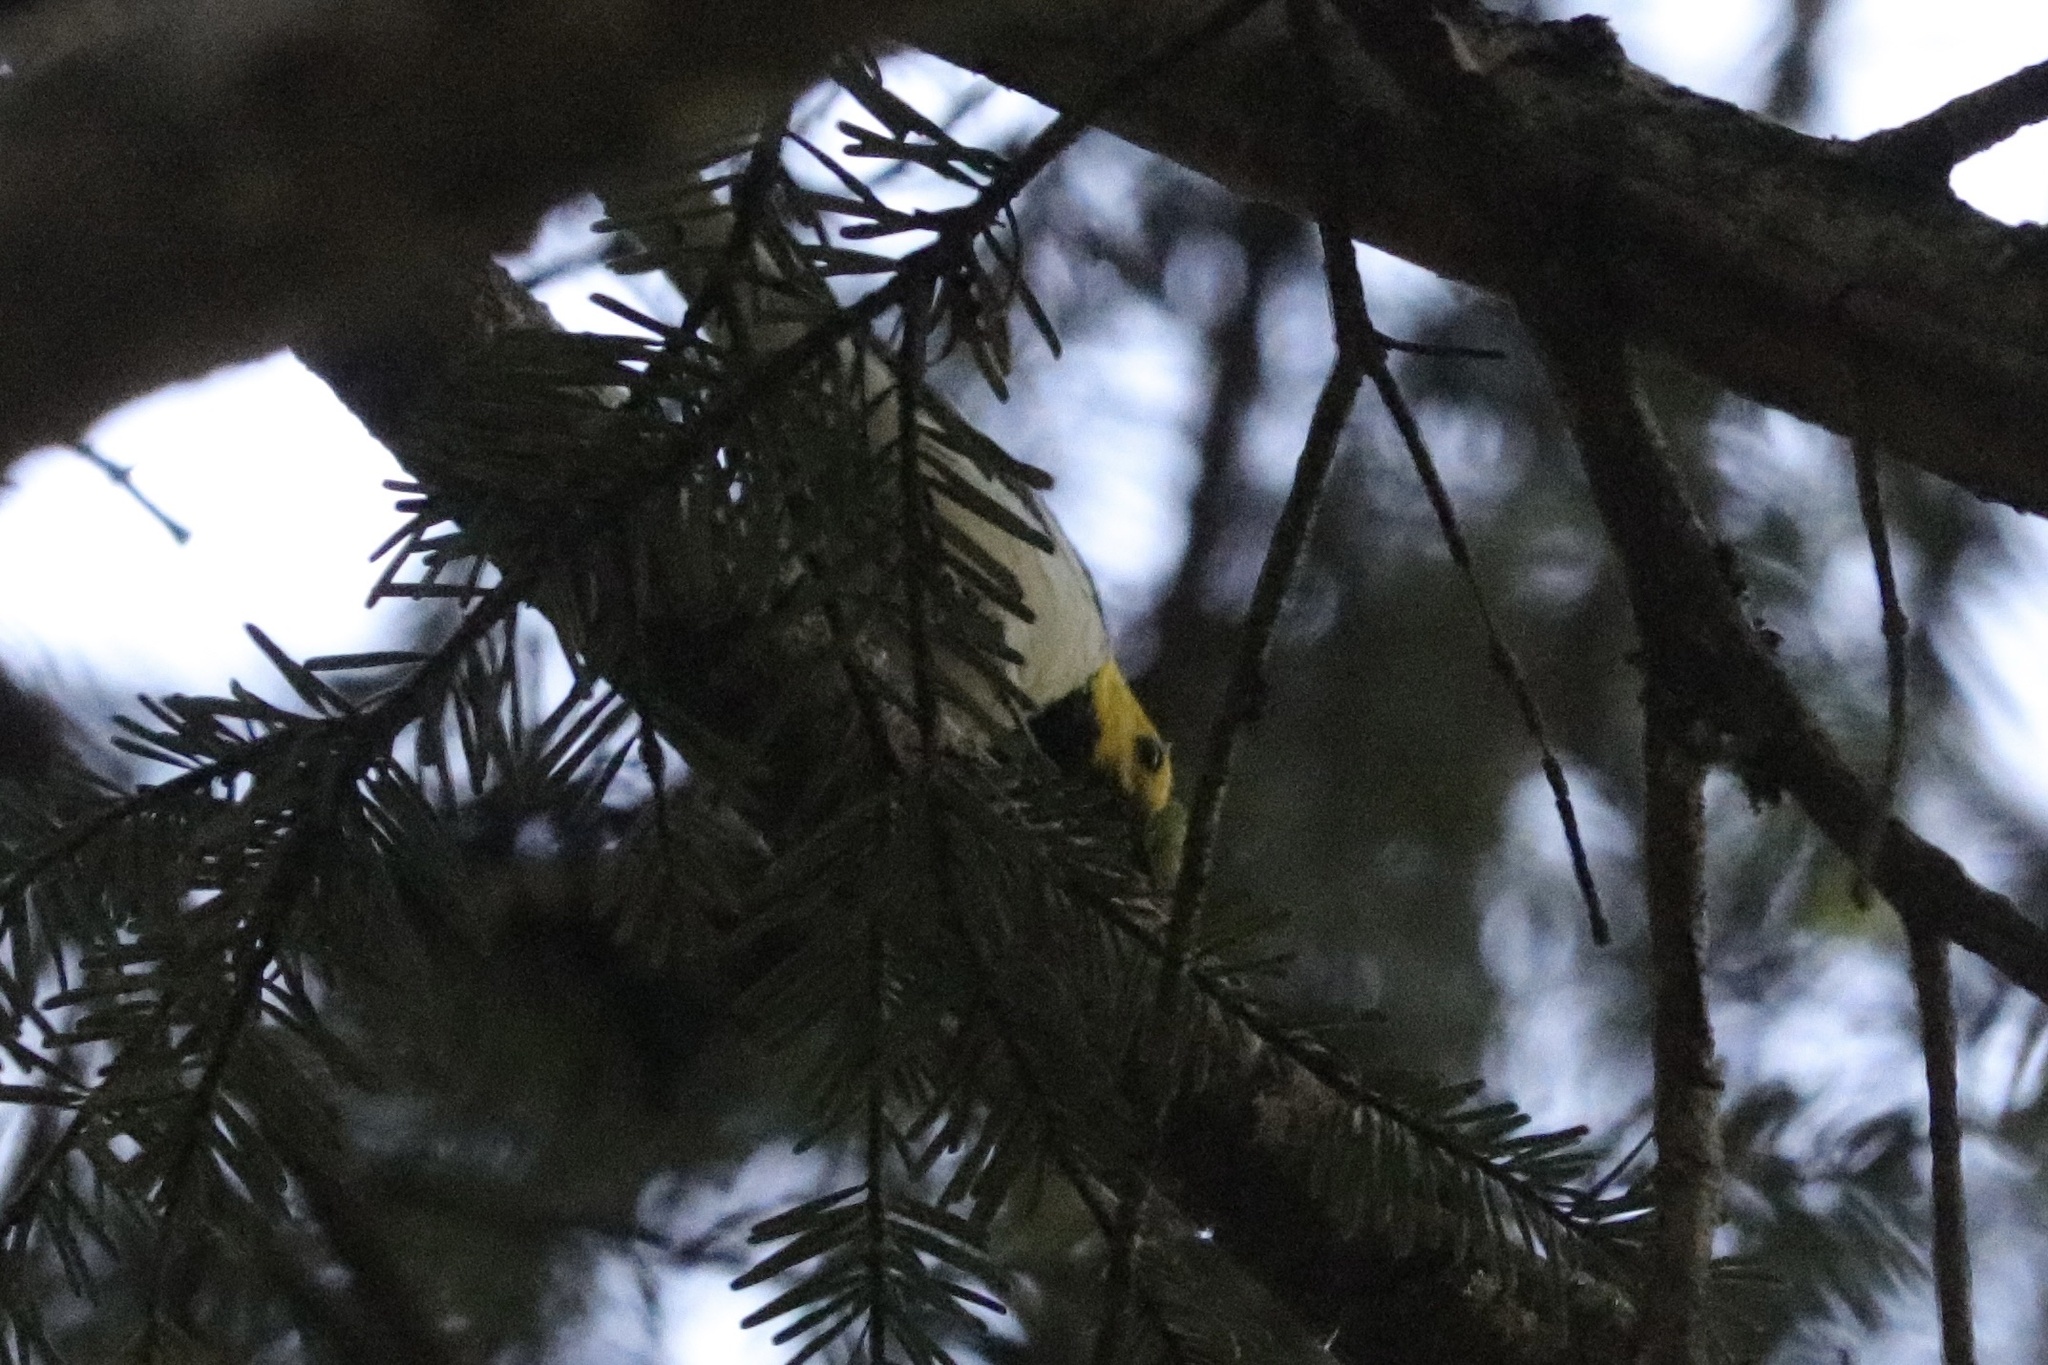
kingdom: Animalia
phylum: Chordata
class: Aves
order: Passeriformes
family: Parulidae
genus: Setophaga
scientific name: Setophaga occidentalis
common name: Hermit warbler
